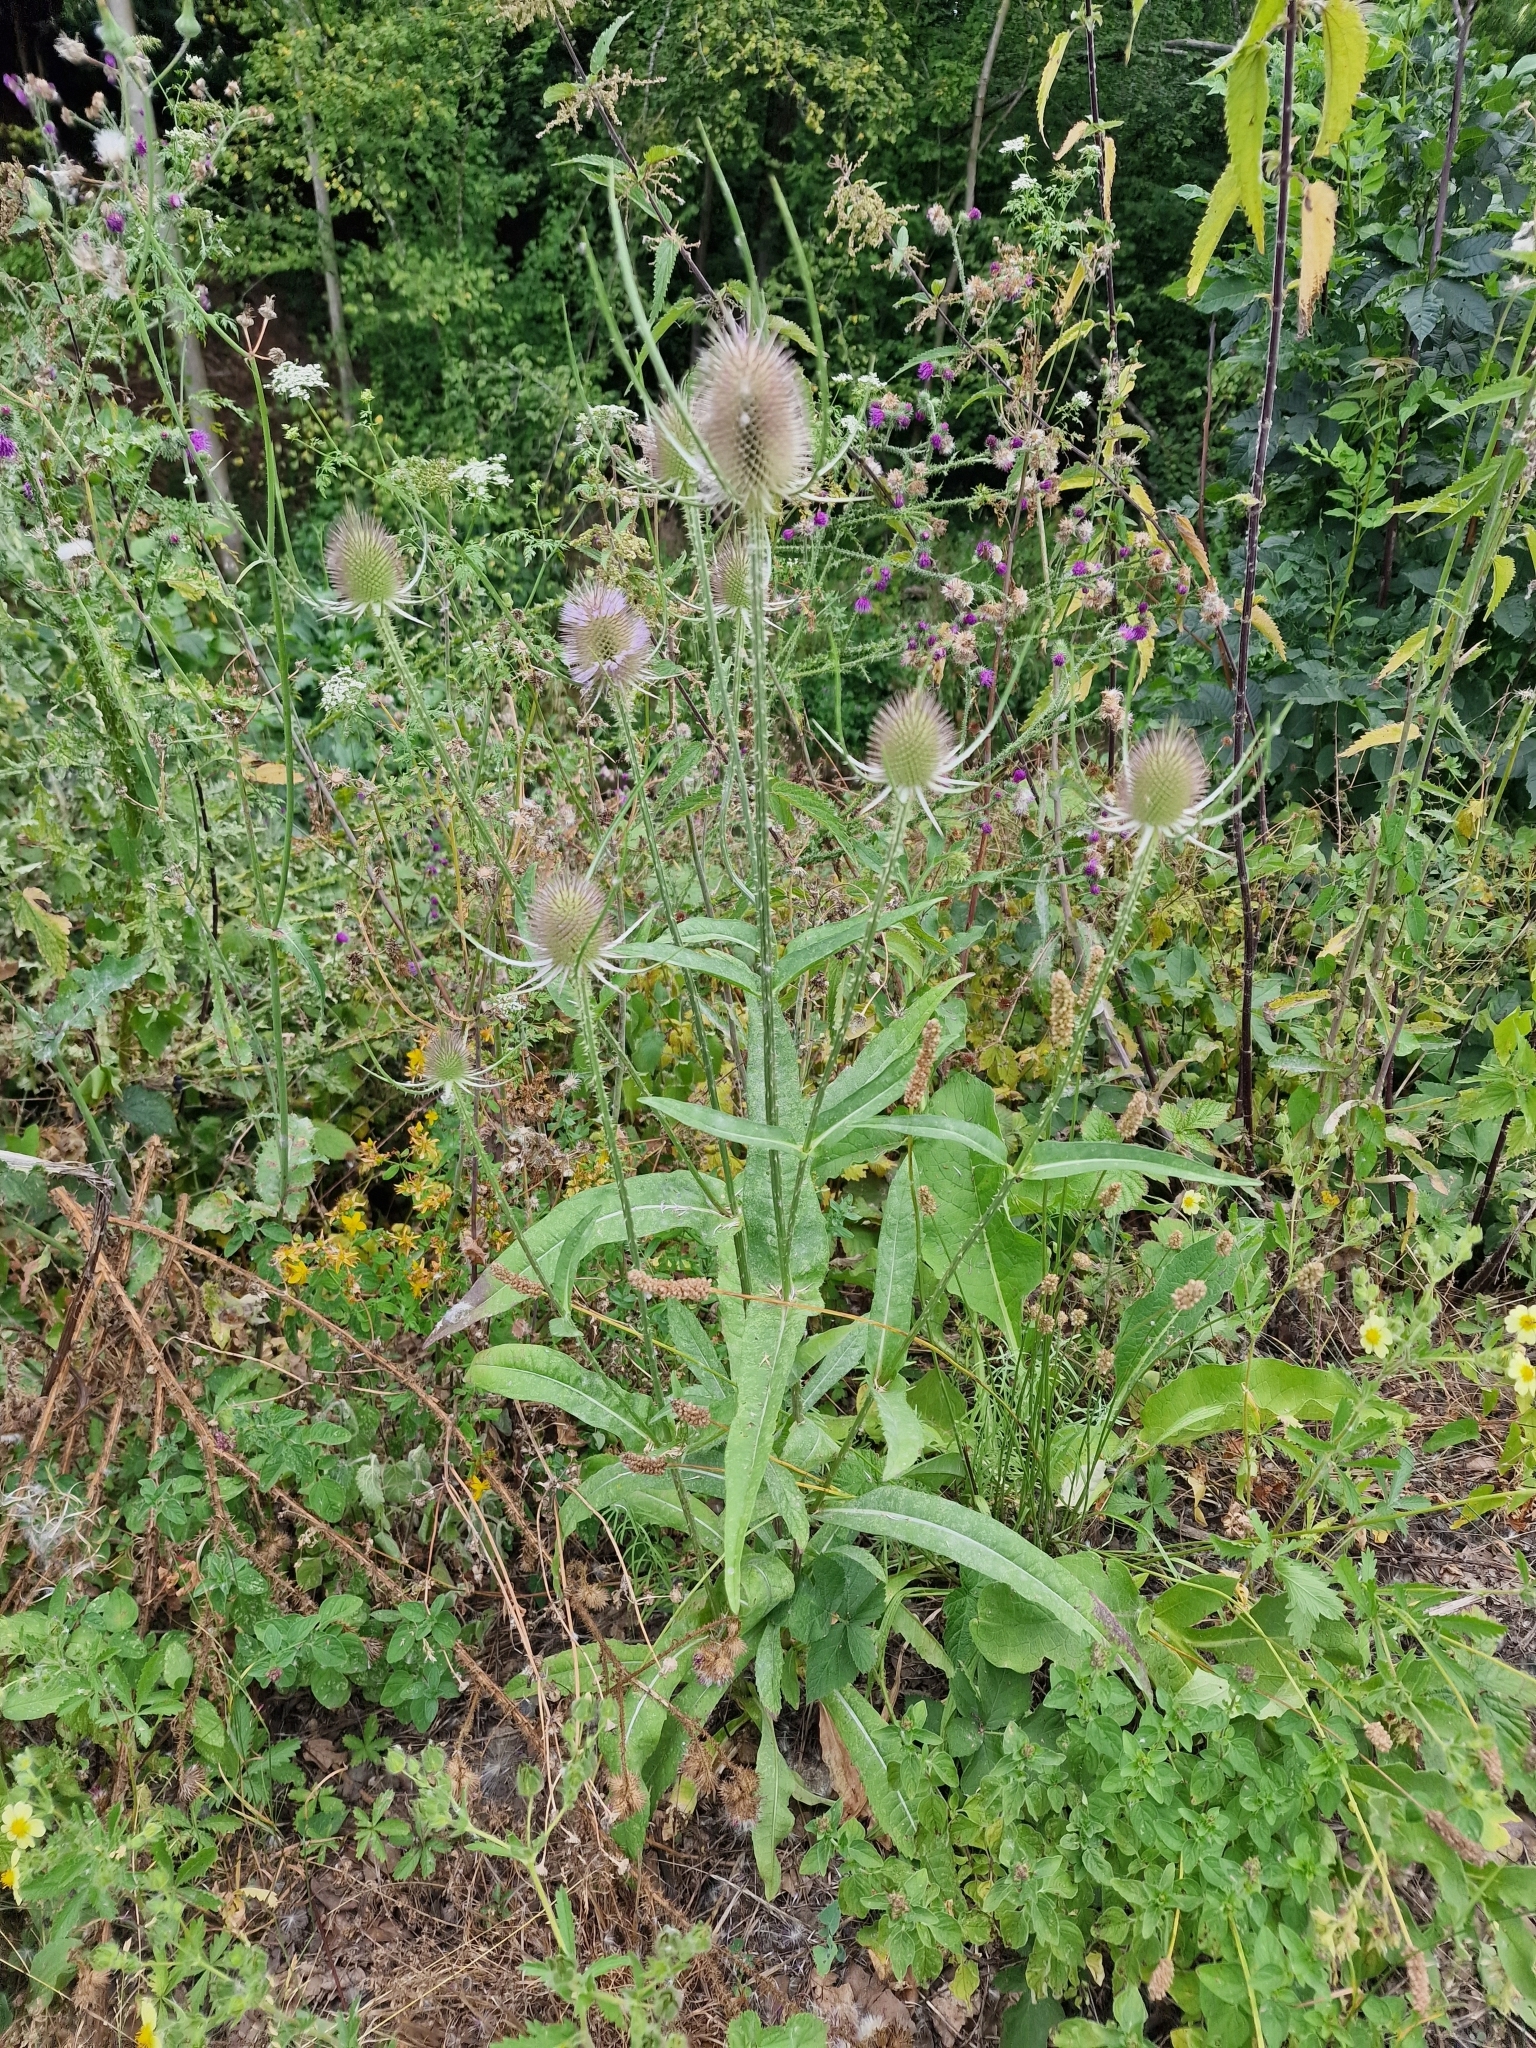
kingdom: Plantae
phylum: Tracheophyta
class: Magnoliopsida
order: Dipsacales
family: Caprifoliaceae
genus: Dipsacus
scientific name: Dipsacus fullonum
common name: Teasel
